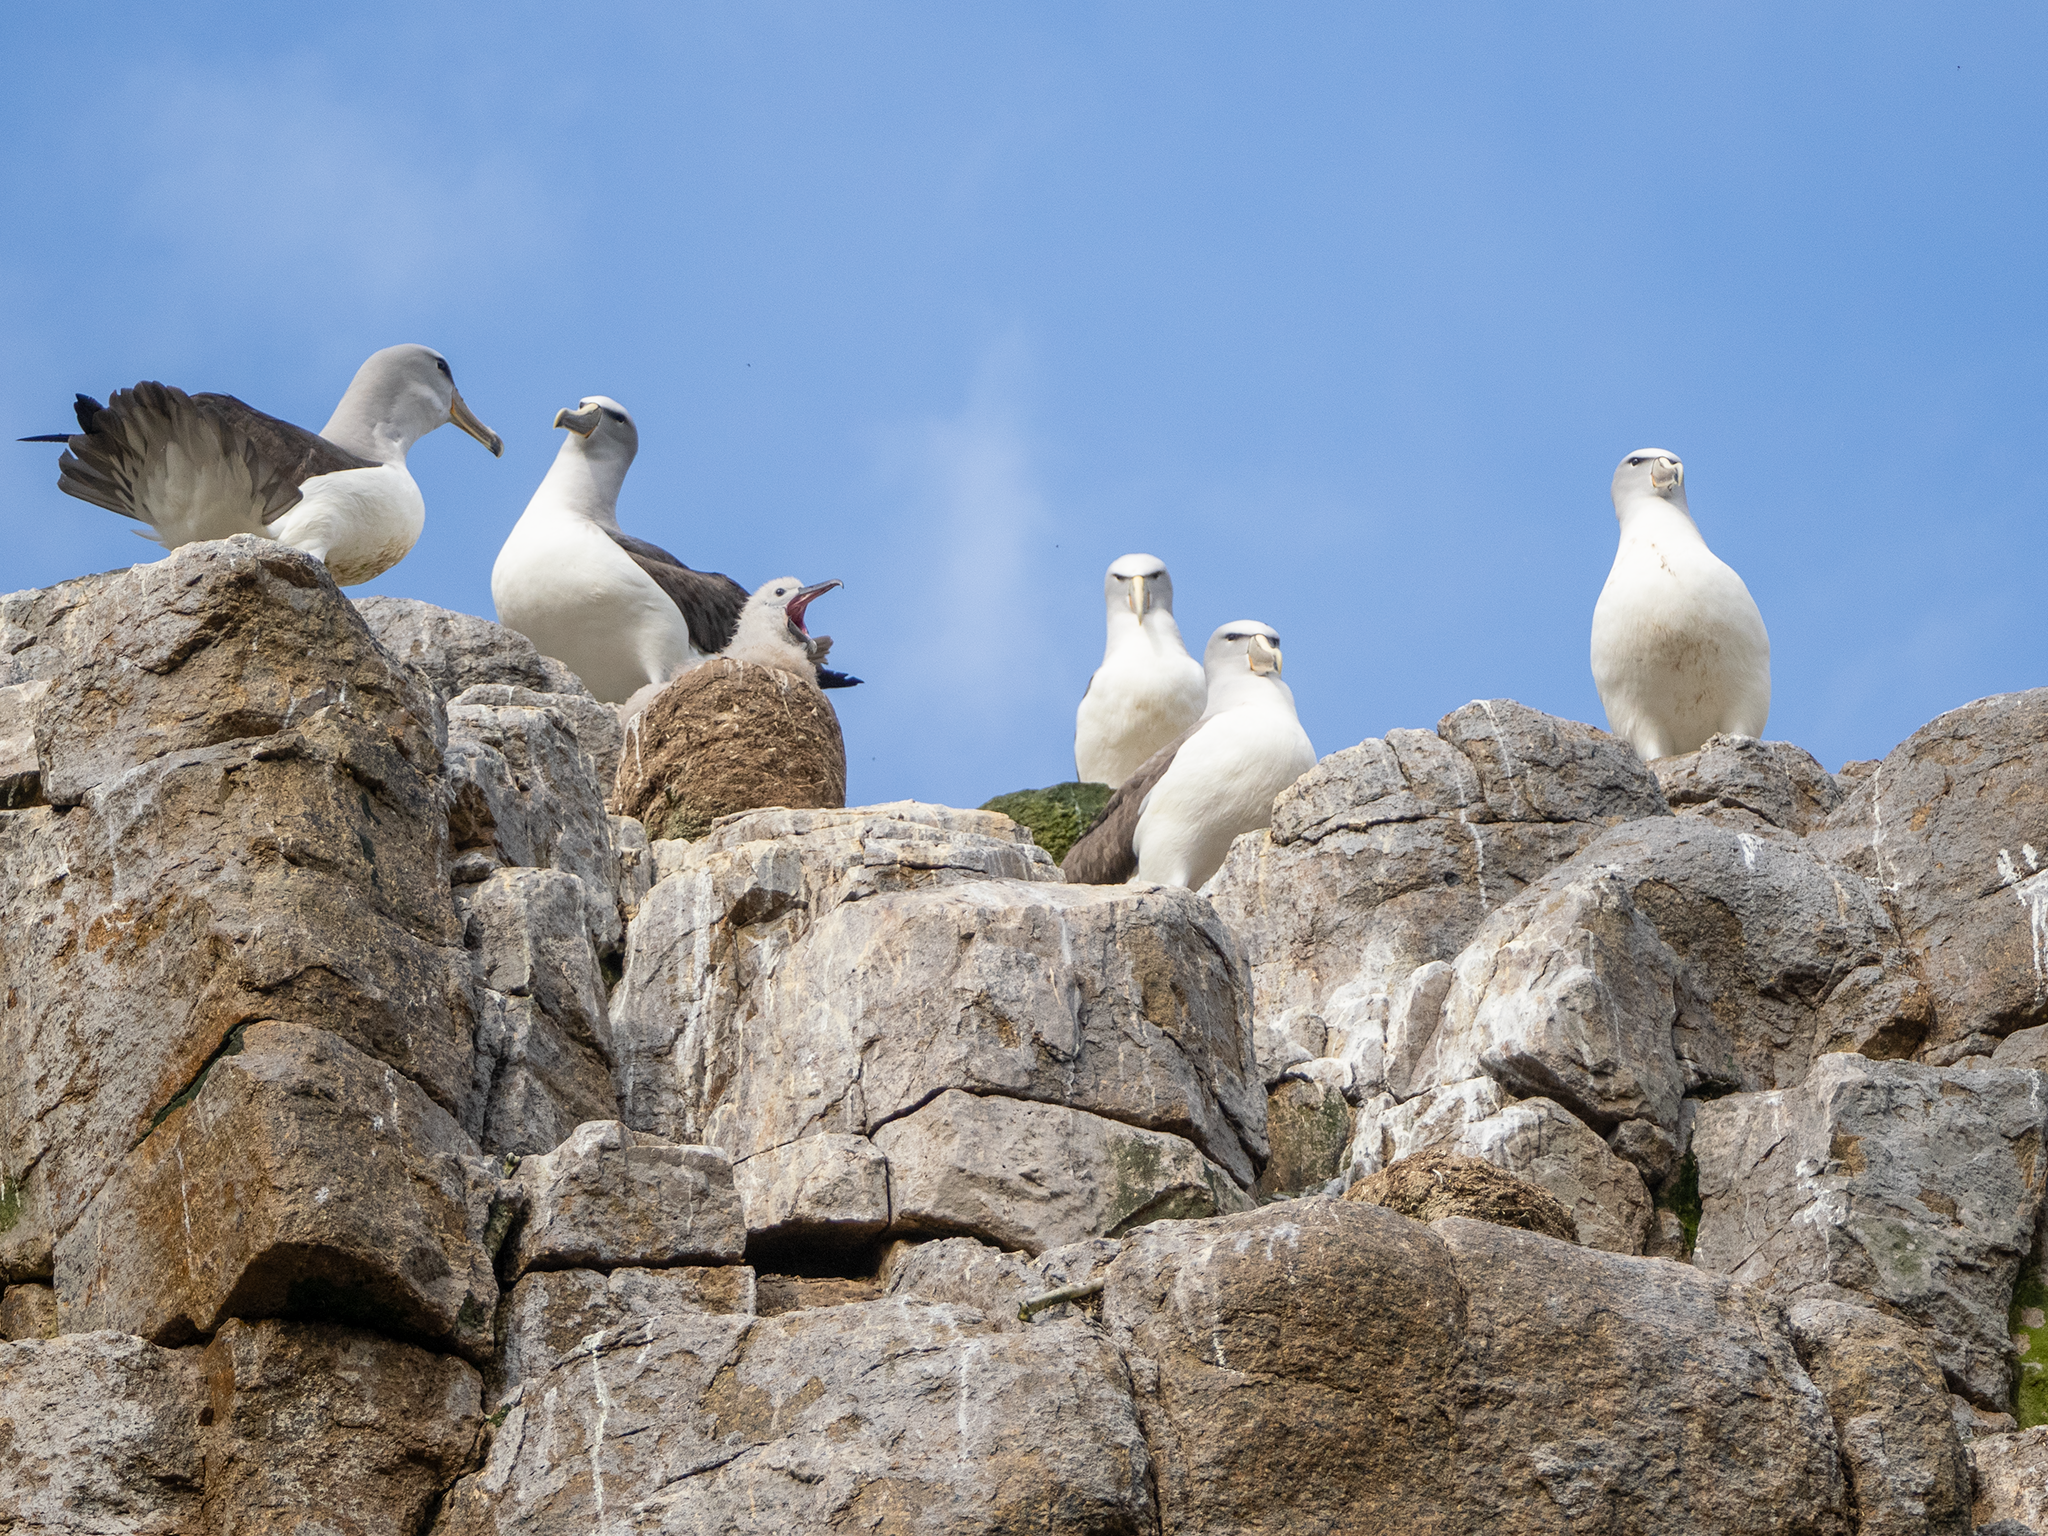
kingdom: Animalia
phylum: Chordata
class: Aves
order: Procellariiformes
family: Diomedeidae
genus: Thalassarche
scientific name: Thalassarche salvini
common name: Salvin's albatross
